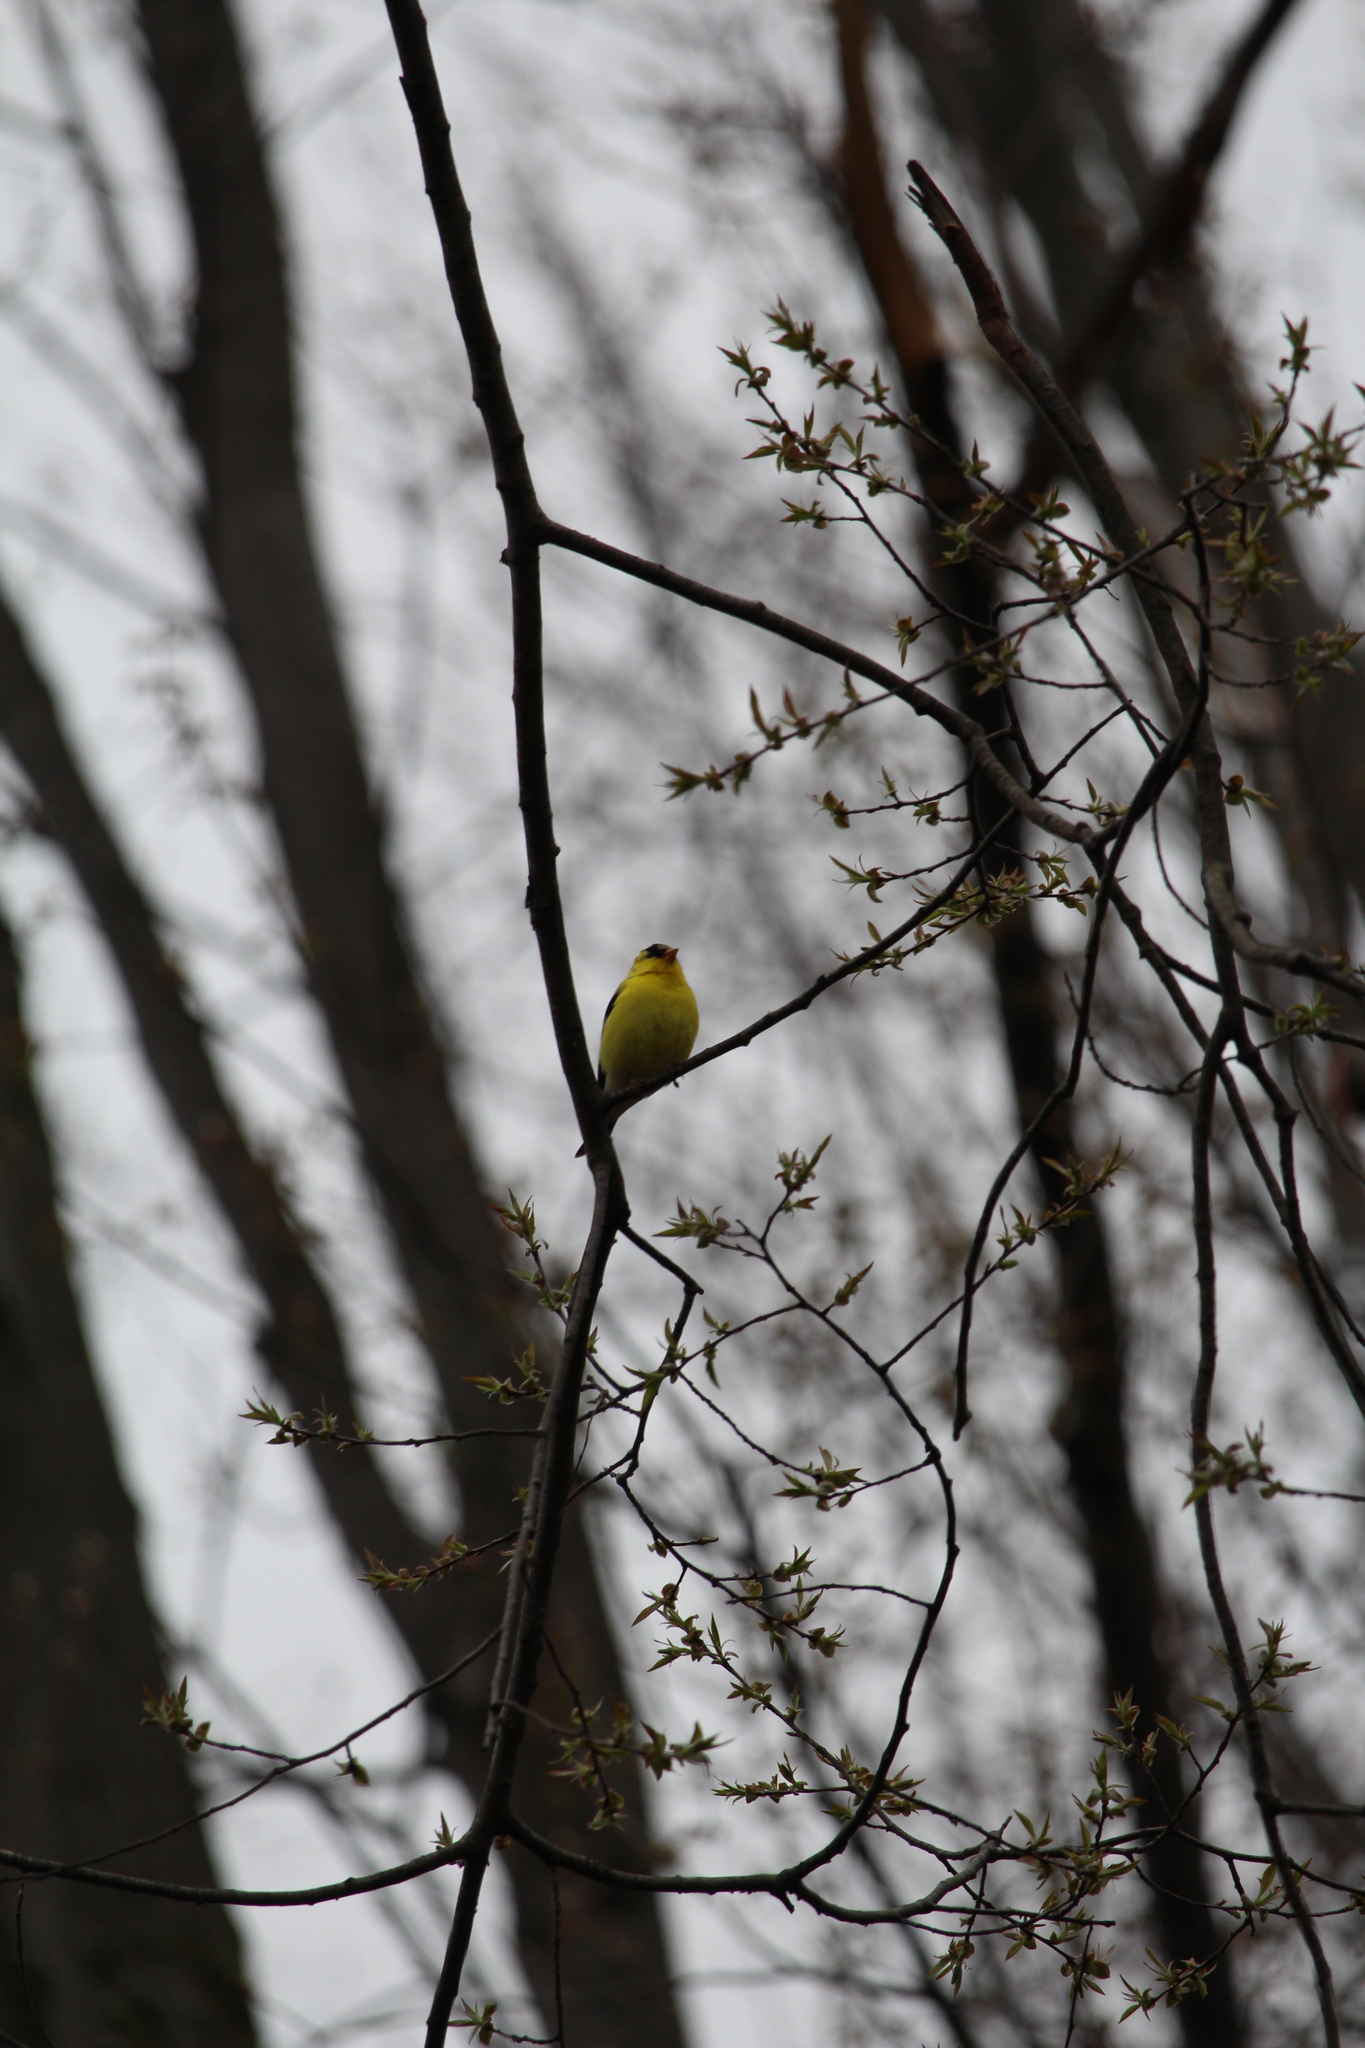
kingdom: Animalia
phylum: Chordata
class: Aves
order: Passeriformes
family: Fringillidae
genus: Spinus
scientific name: Spinus tristis
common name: American goldfinch
